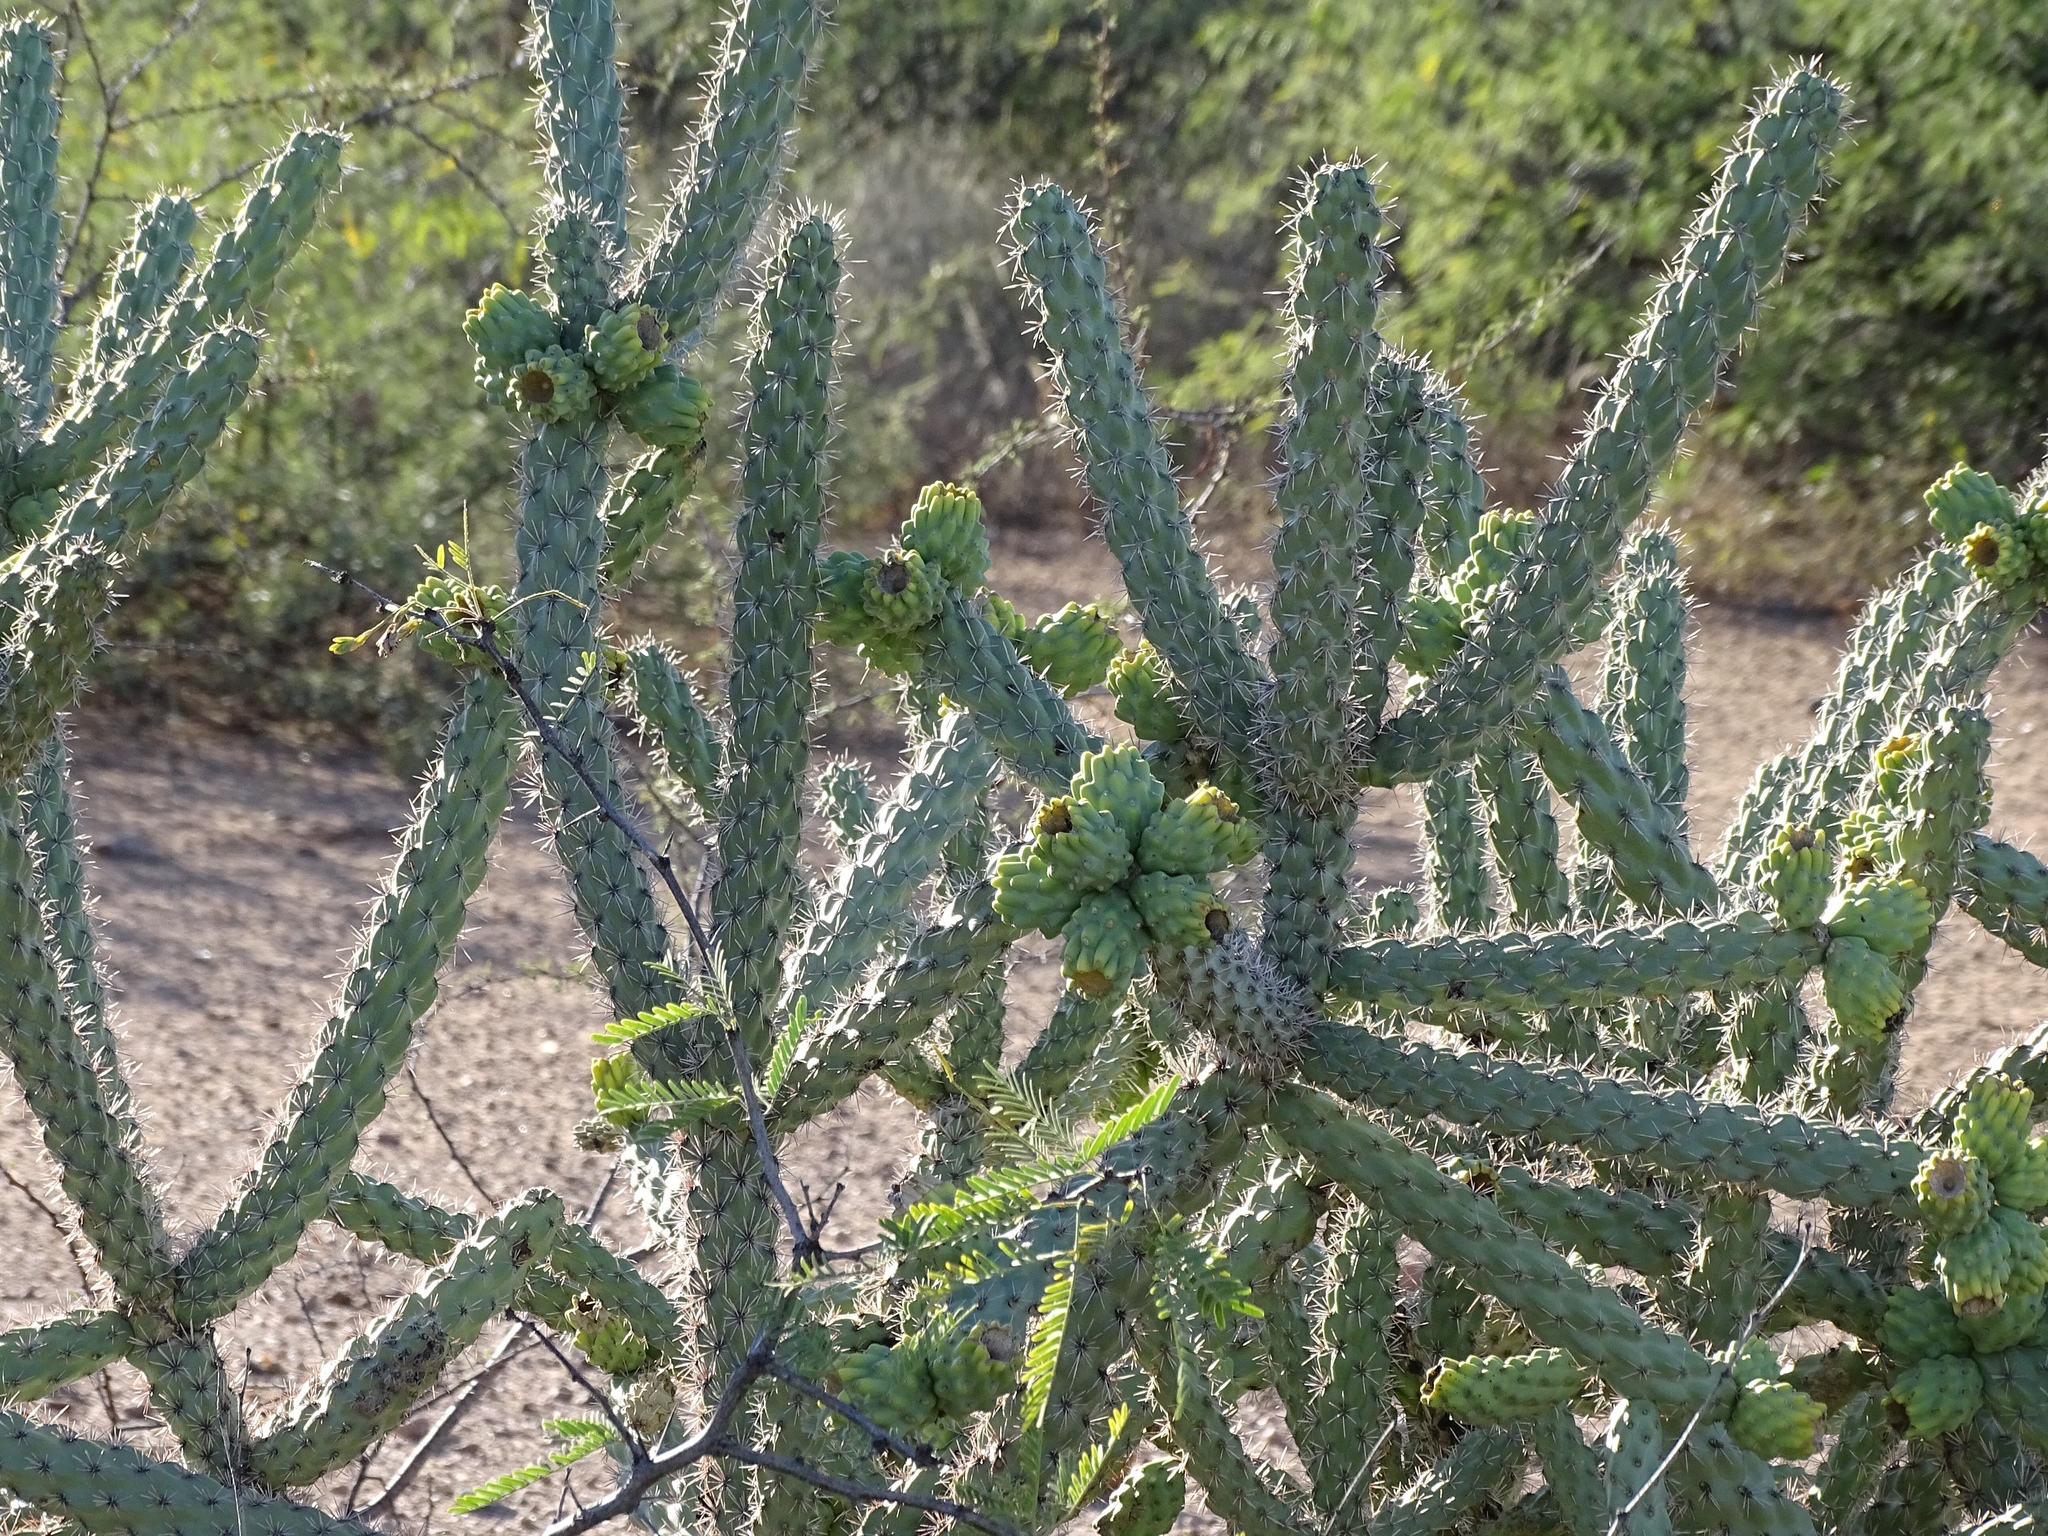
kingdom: Plantae
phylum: Tracheophyta
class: Magnoliopsida
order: Caryophyllales
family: Cactaceae
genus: Cylindropuntia
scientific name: Cylindropuntia imbricata
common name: Candelabrum cactus
